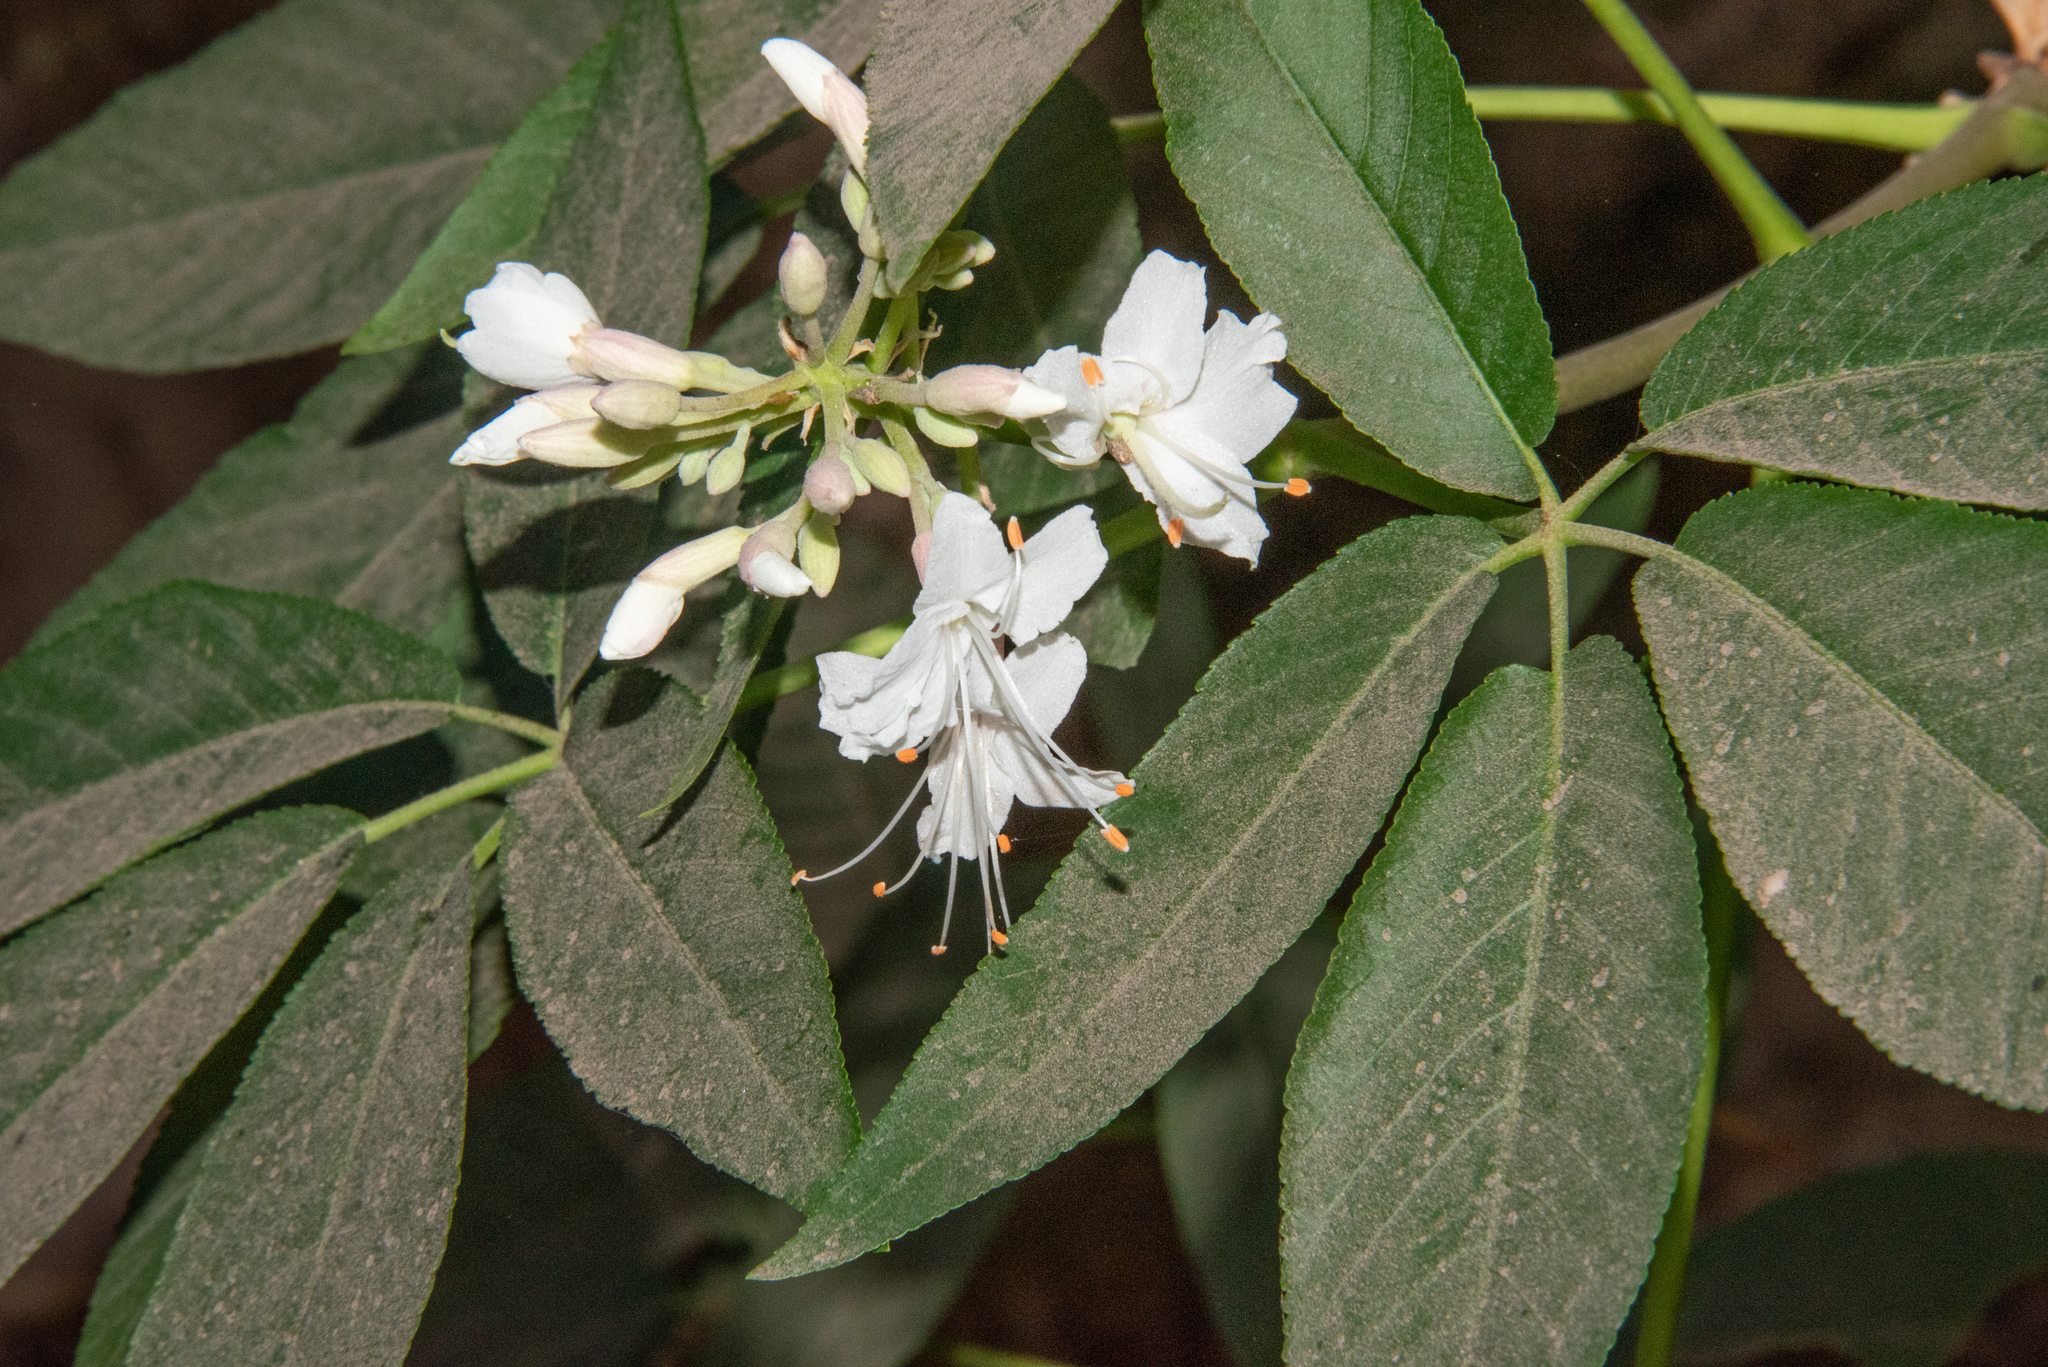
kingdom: Plantae
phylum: Tracheophyta
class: Magnoliopsida
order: Sapindales
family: Sapindaceae
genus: Aesculus
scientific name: Aesculus californica
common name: California buckeye
